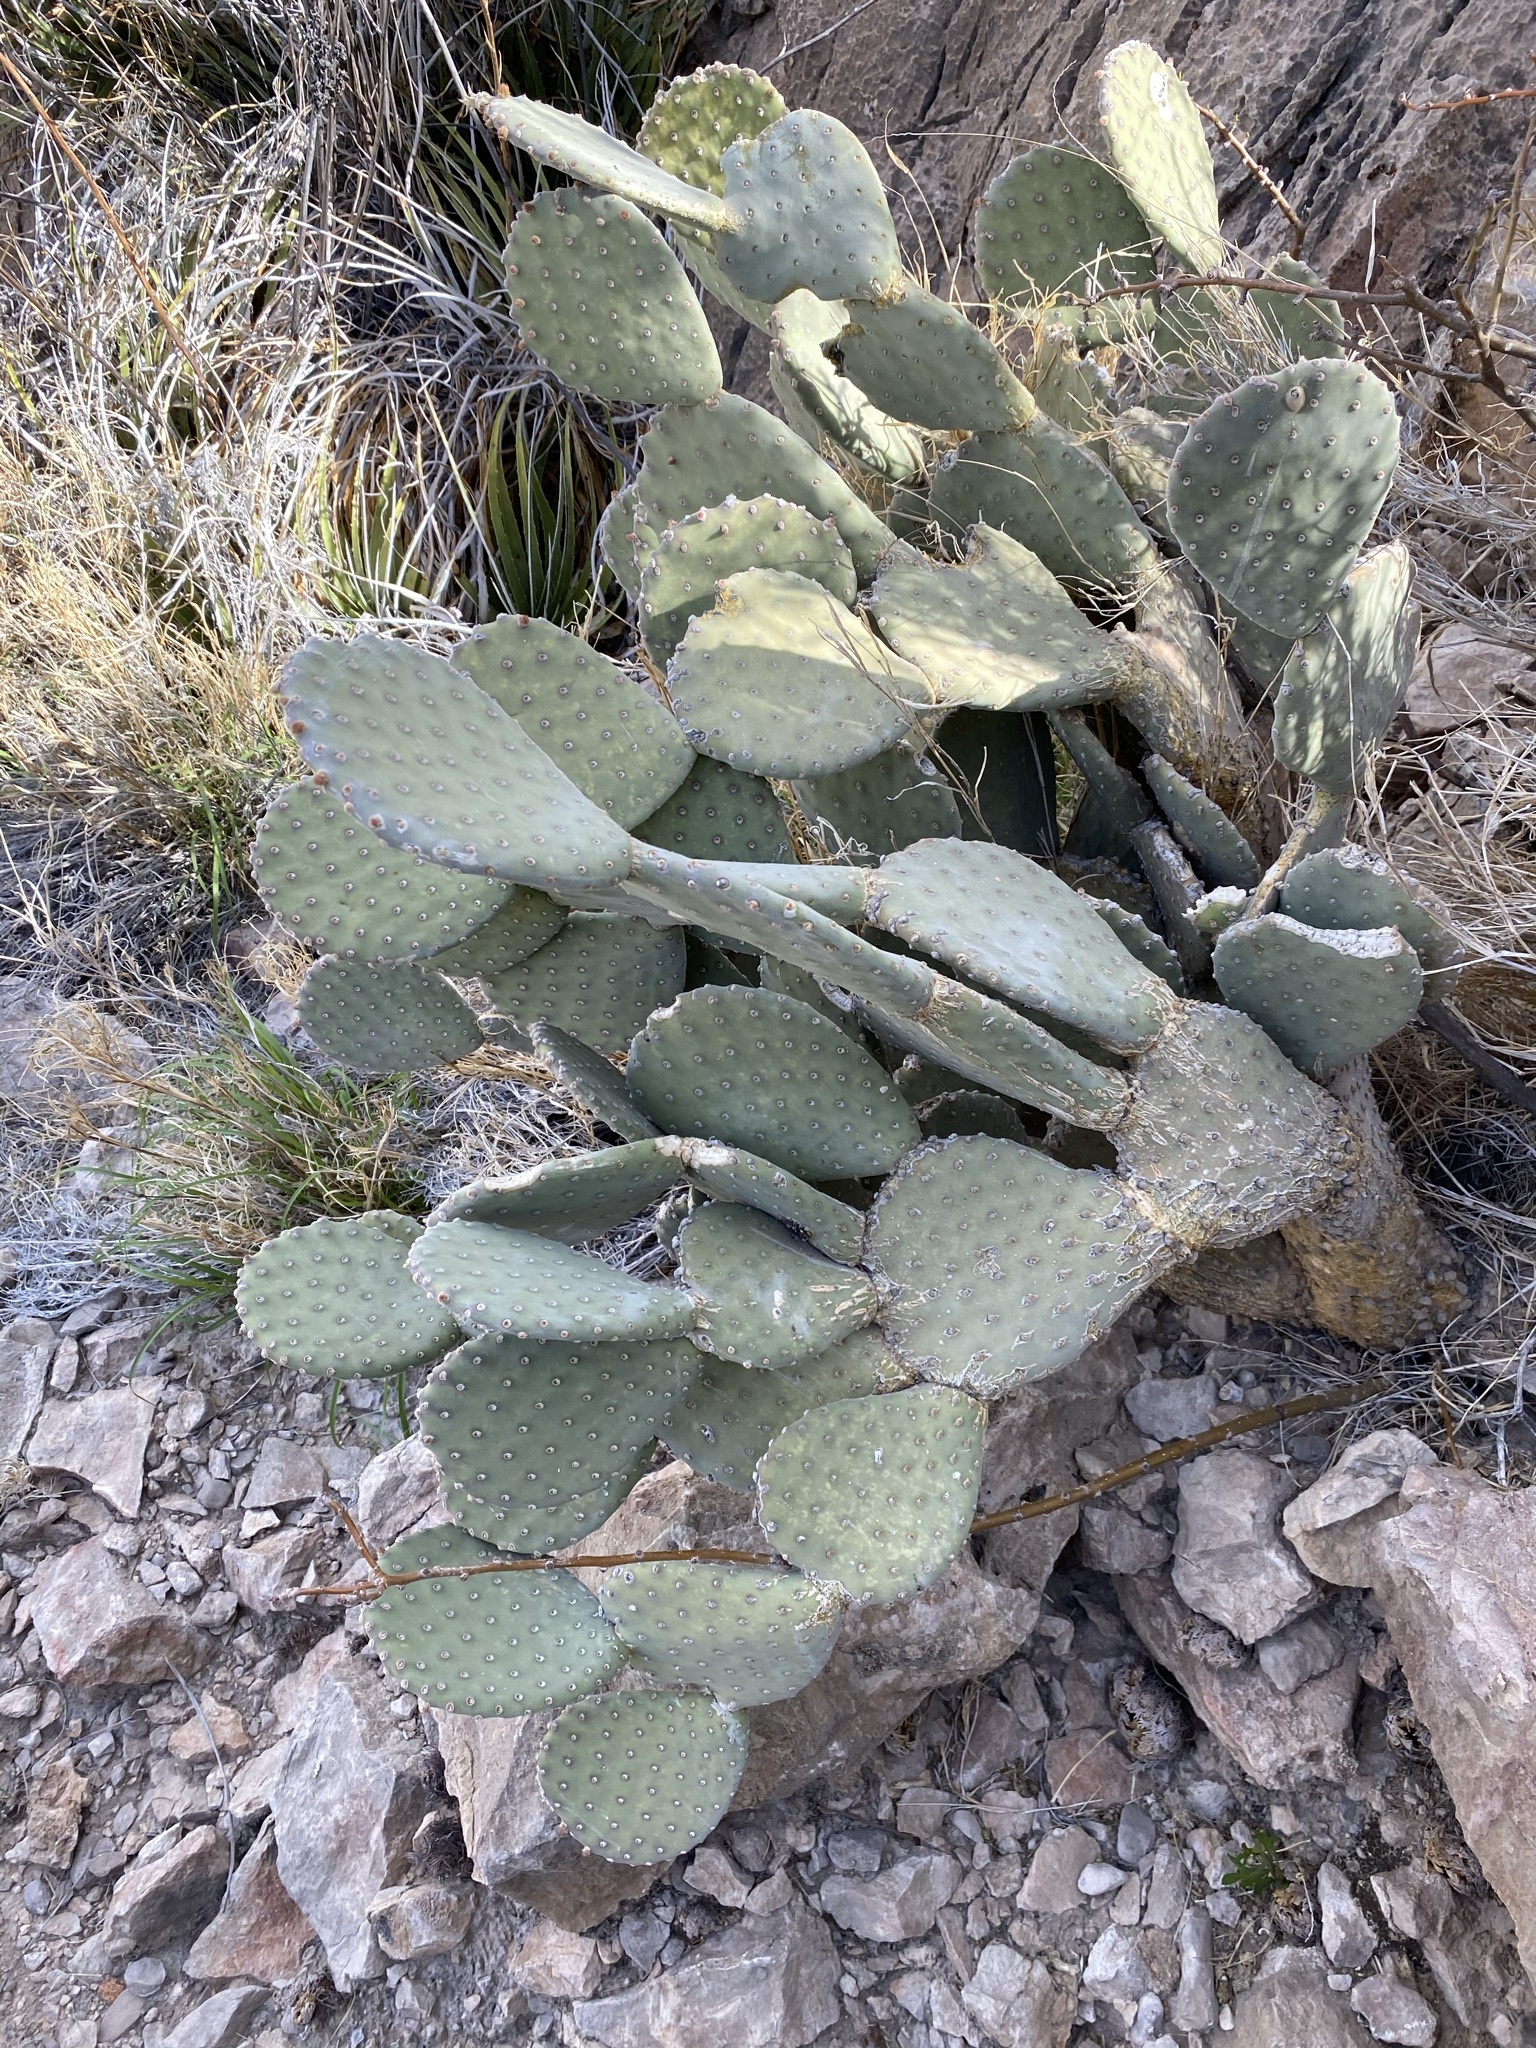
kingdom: Plantae
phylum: Tracheophyta
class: Magnoliopsida
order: Caryophyllales
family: Cactaceae
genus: Opuntia
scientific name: Opuntia rufida
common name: Blind pricklypear
